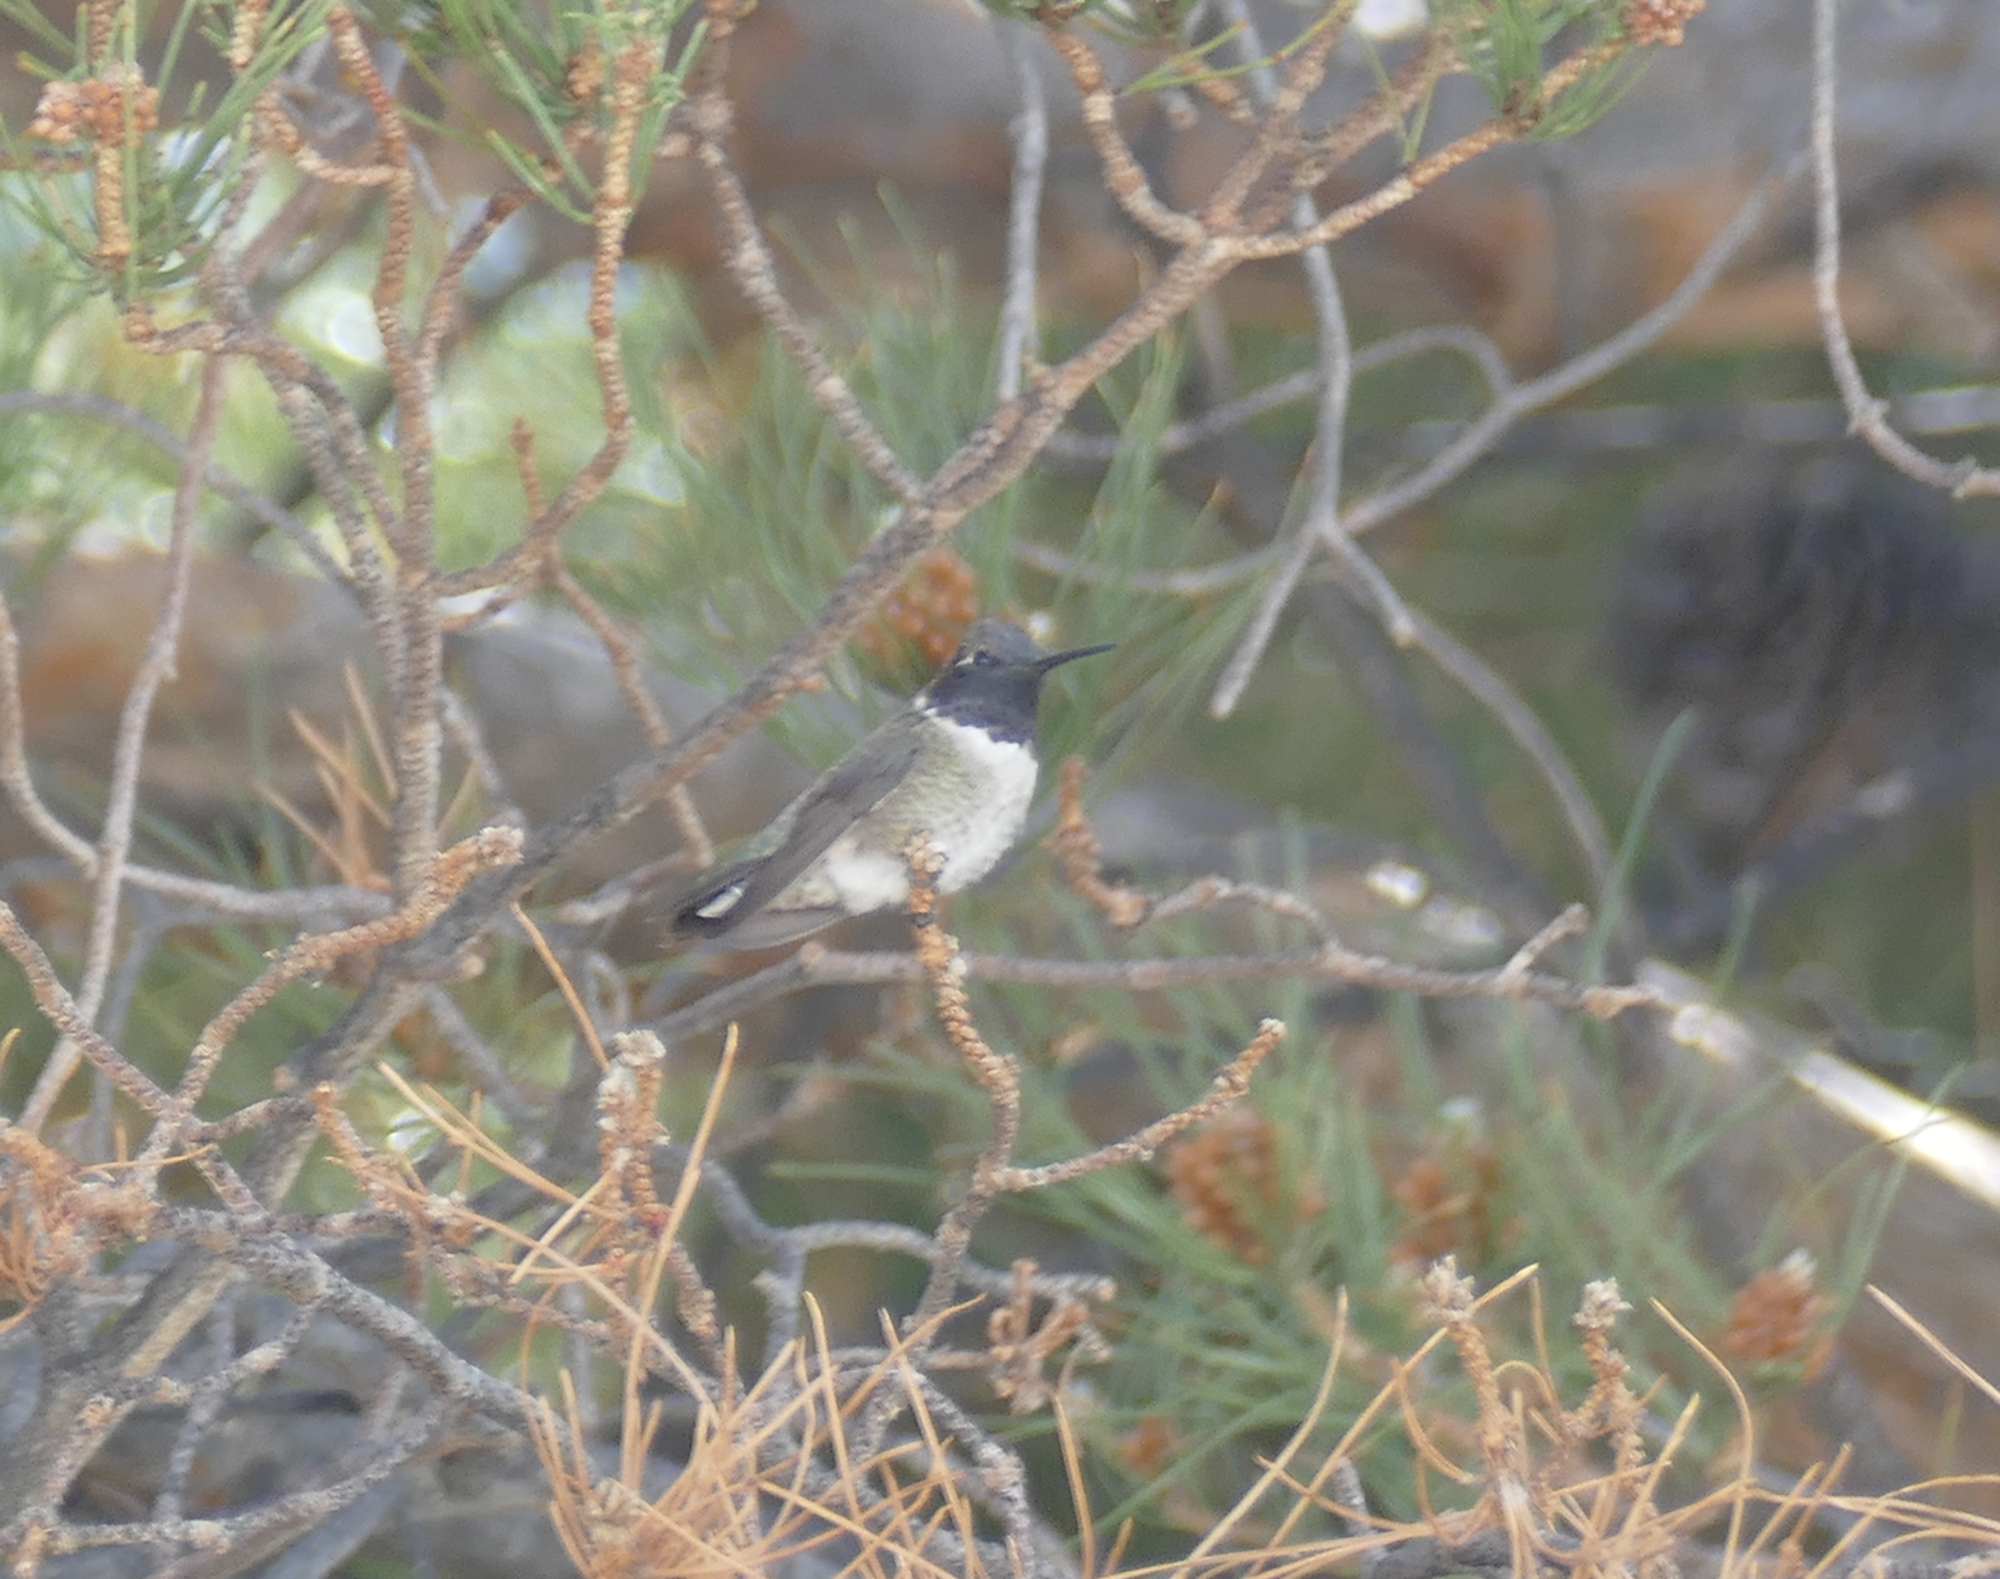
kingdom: Animalia
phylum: Chordata
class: Aves
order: Apodiformes
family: Trochilidae
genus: Archilochus
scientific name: Archilochus alexandri
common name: Black-chinned hummingbird
